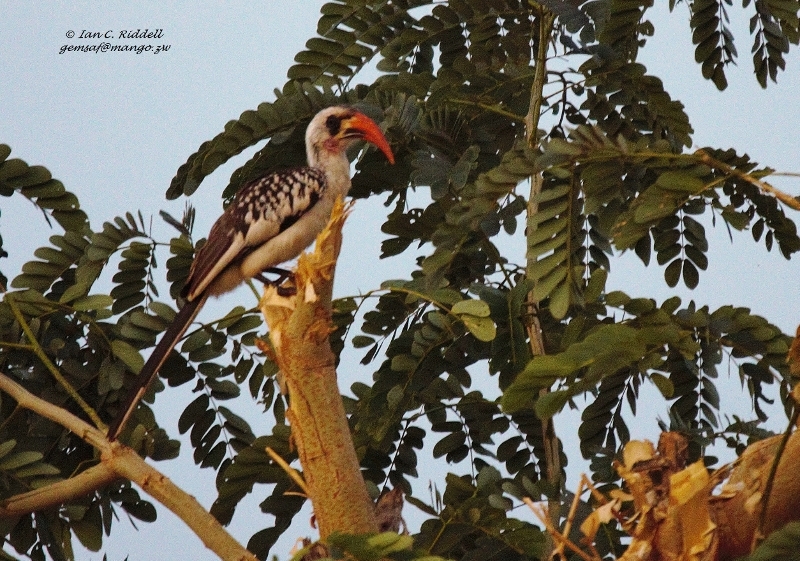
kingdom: Animalia
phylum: Chordata
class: Aves
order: Bucerotiformes
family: Bucerotidae
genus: Tockus
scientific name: Tockus kempi
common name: Western red-billed hornbill
